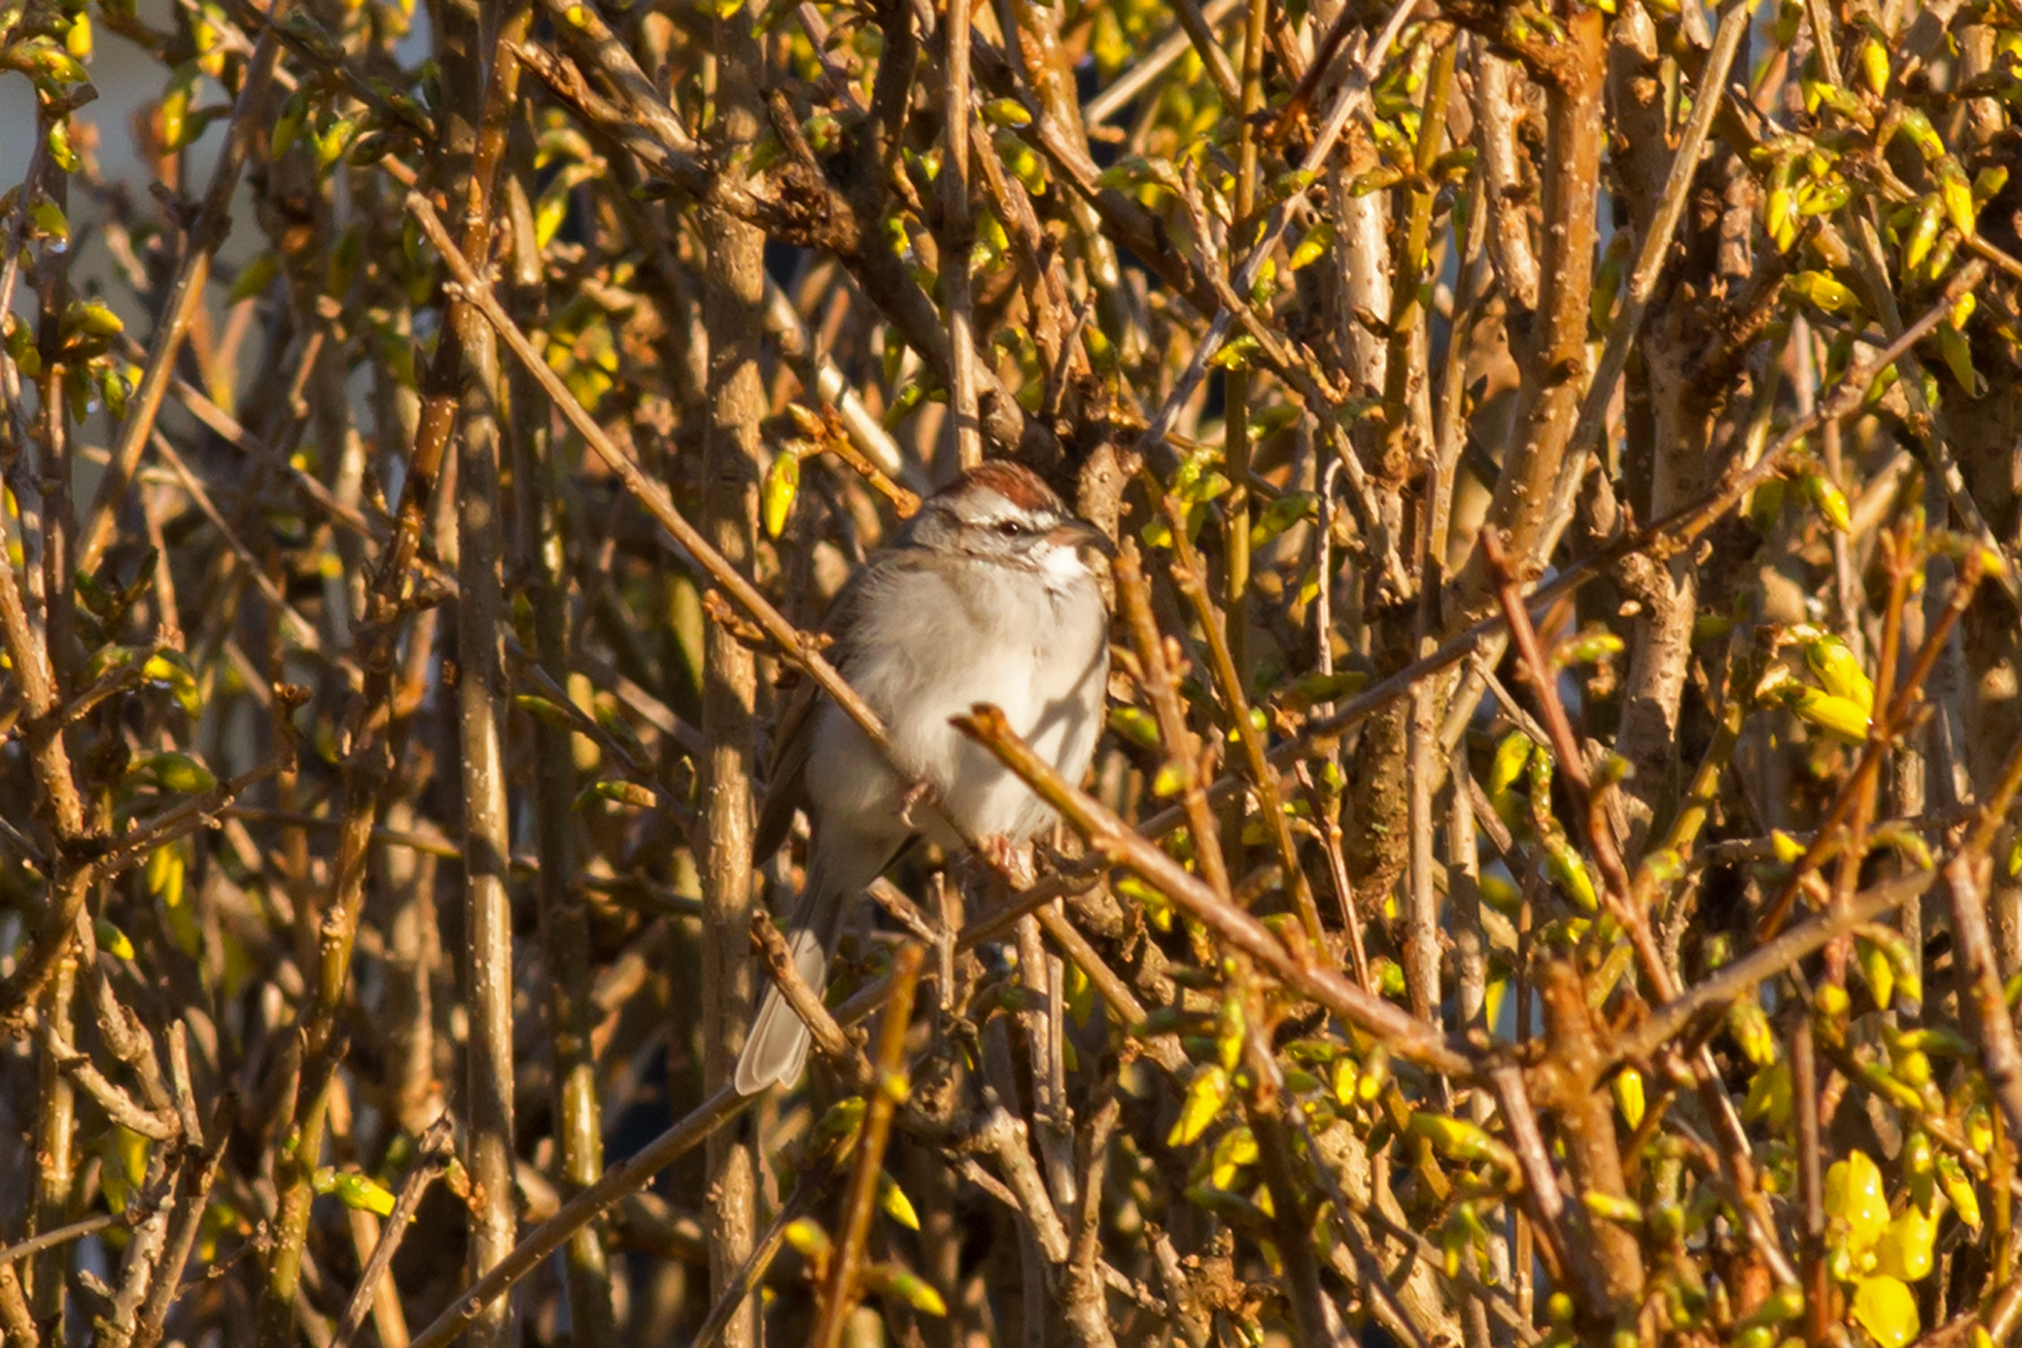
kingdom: Animalia
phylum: Chordata
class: Aves
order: Passeriformes
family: Passerellidae
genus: Spizella
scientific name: Spizella passerina
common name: Chipping sparrow
